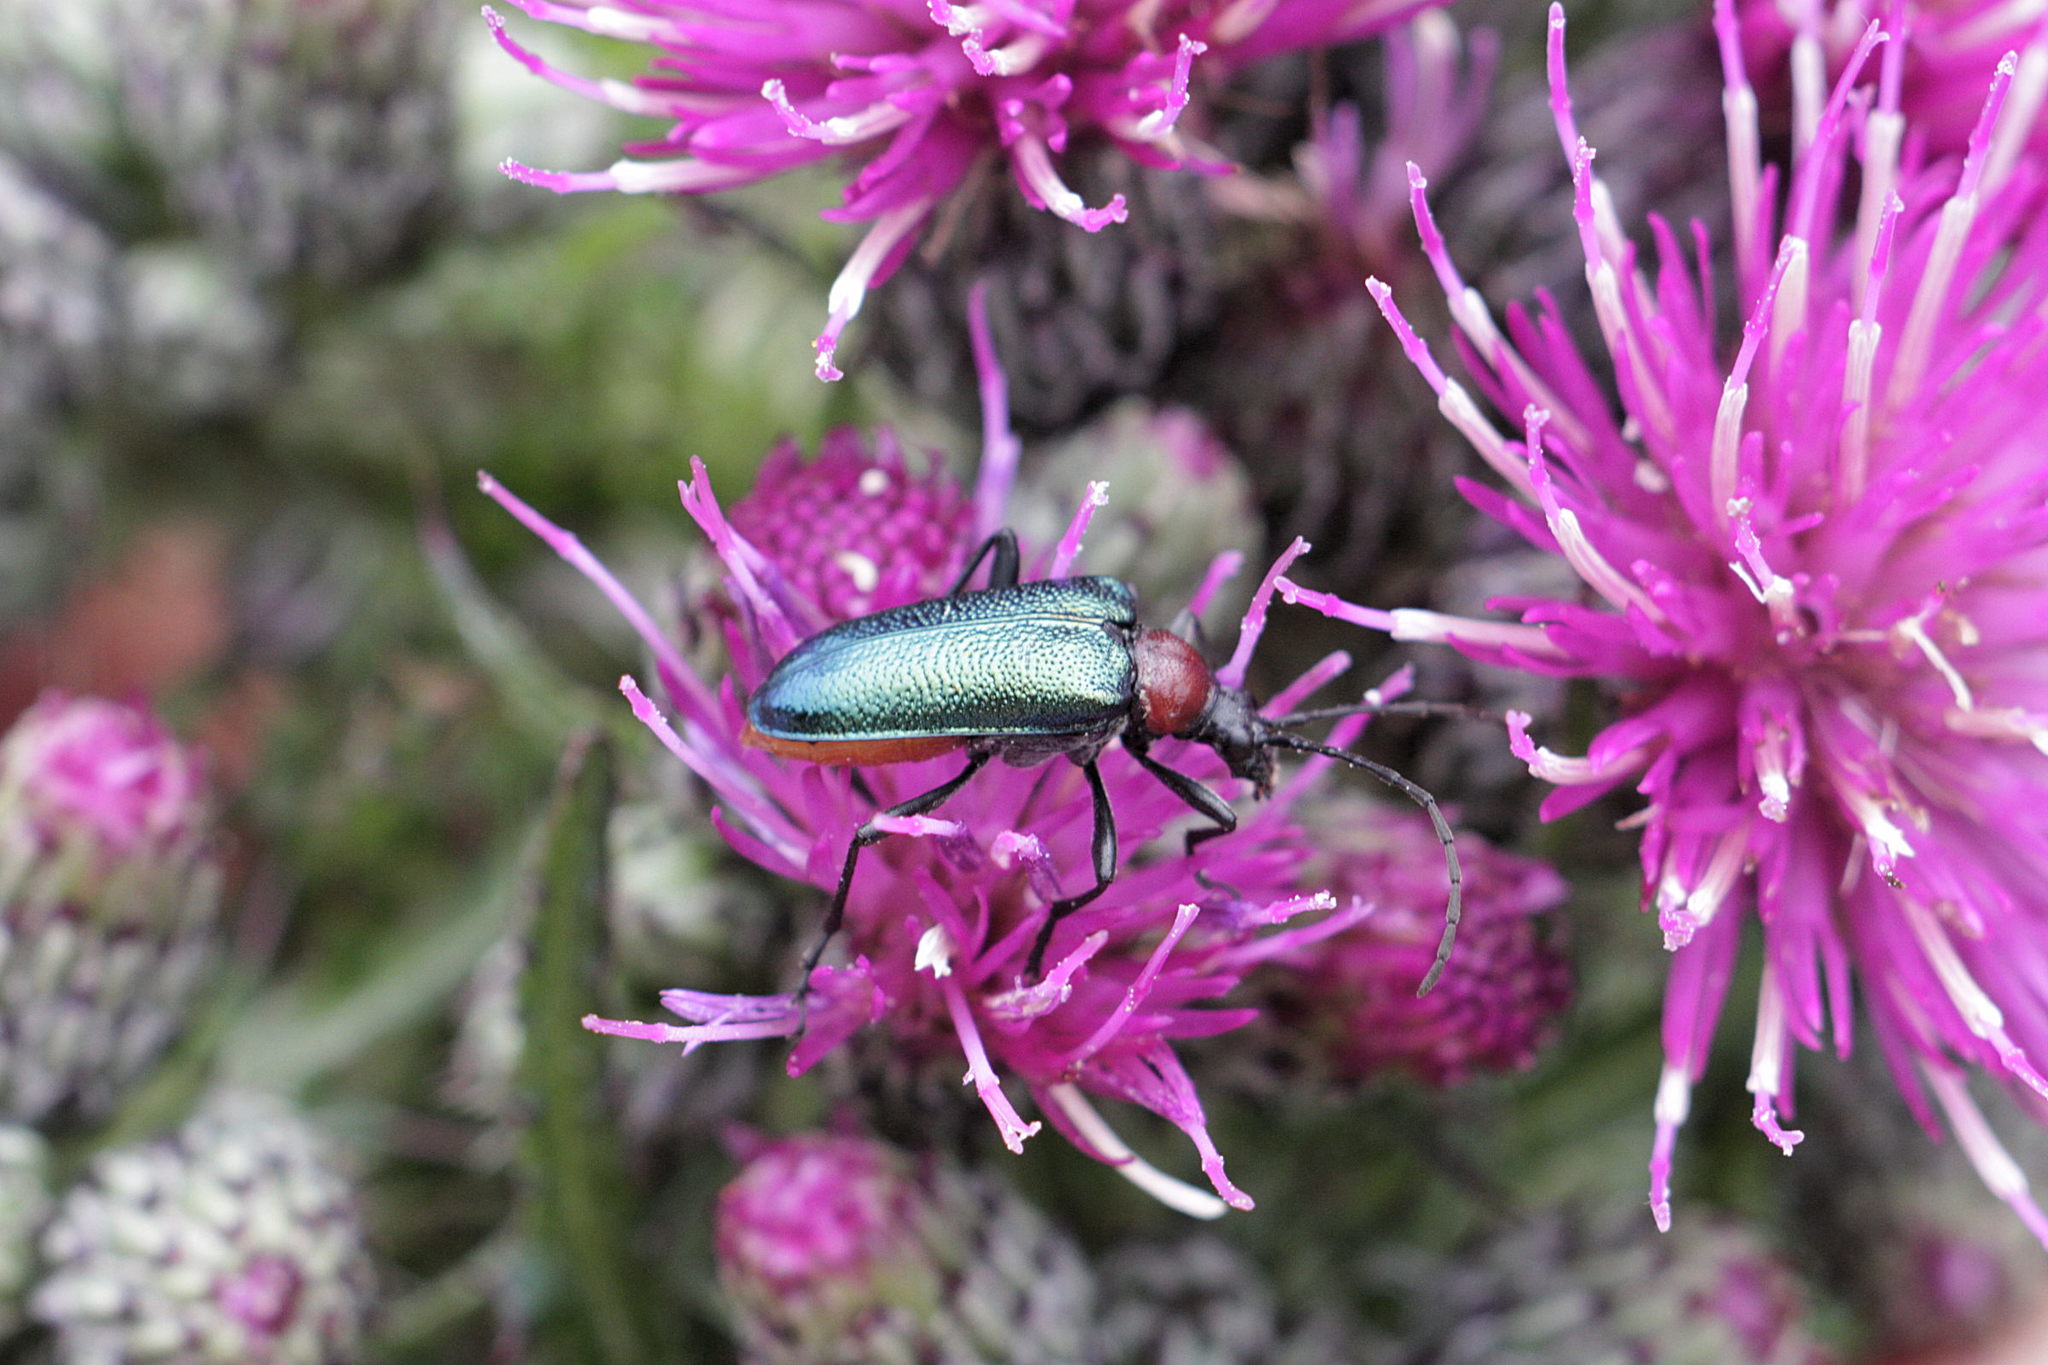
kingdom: Animalia
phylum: Arthropoda
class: Insecta
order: Coleoptera
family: Cerambycidae
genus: Gaurotes
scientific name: Gaurotes virginea
